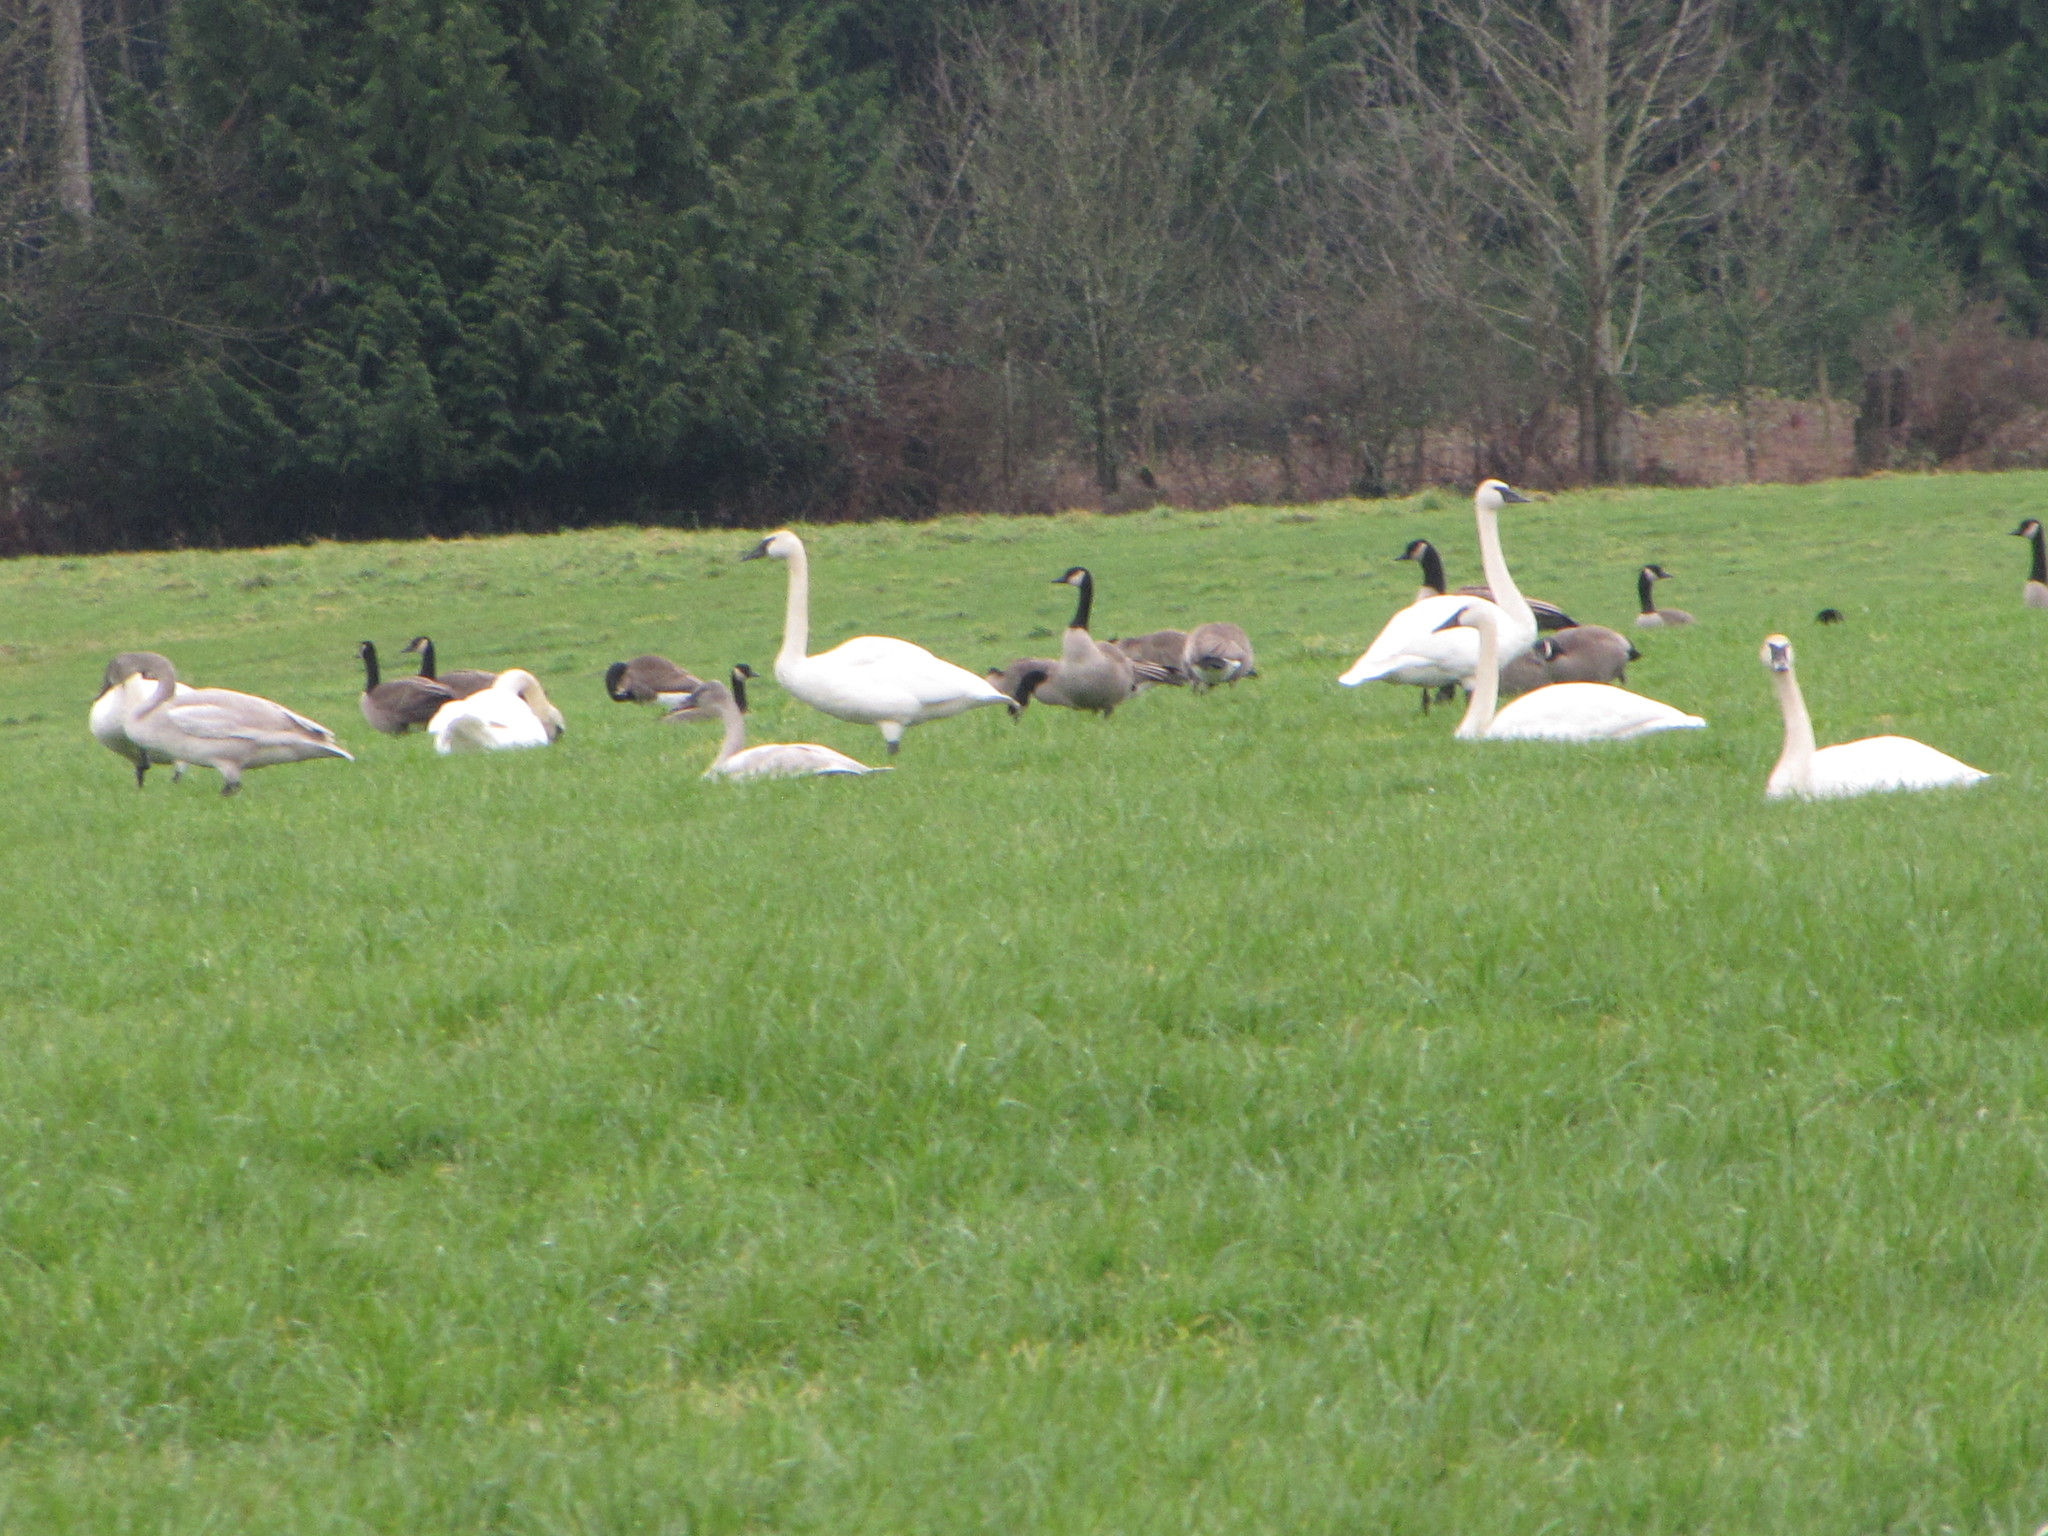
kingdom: Animalia
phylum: Chordata
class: Aves
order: Anseriformes
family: Anatidae
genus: Cygnus
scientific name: Cygnus buccinator
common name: Trumpeter swan
